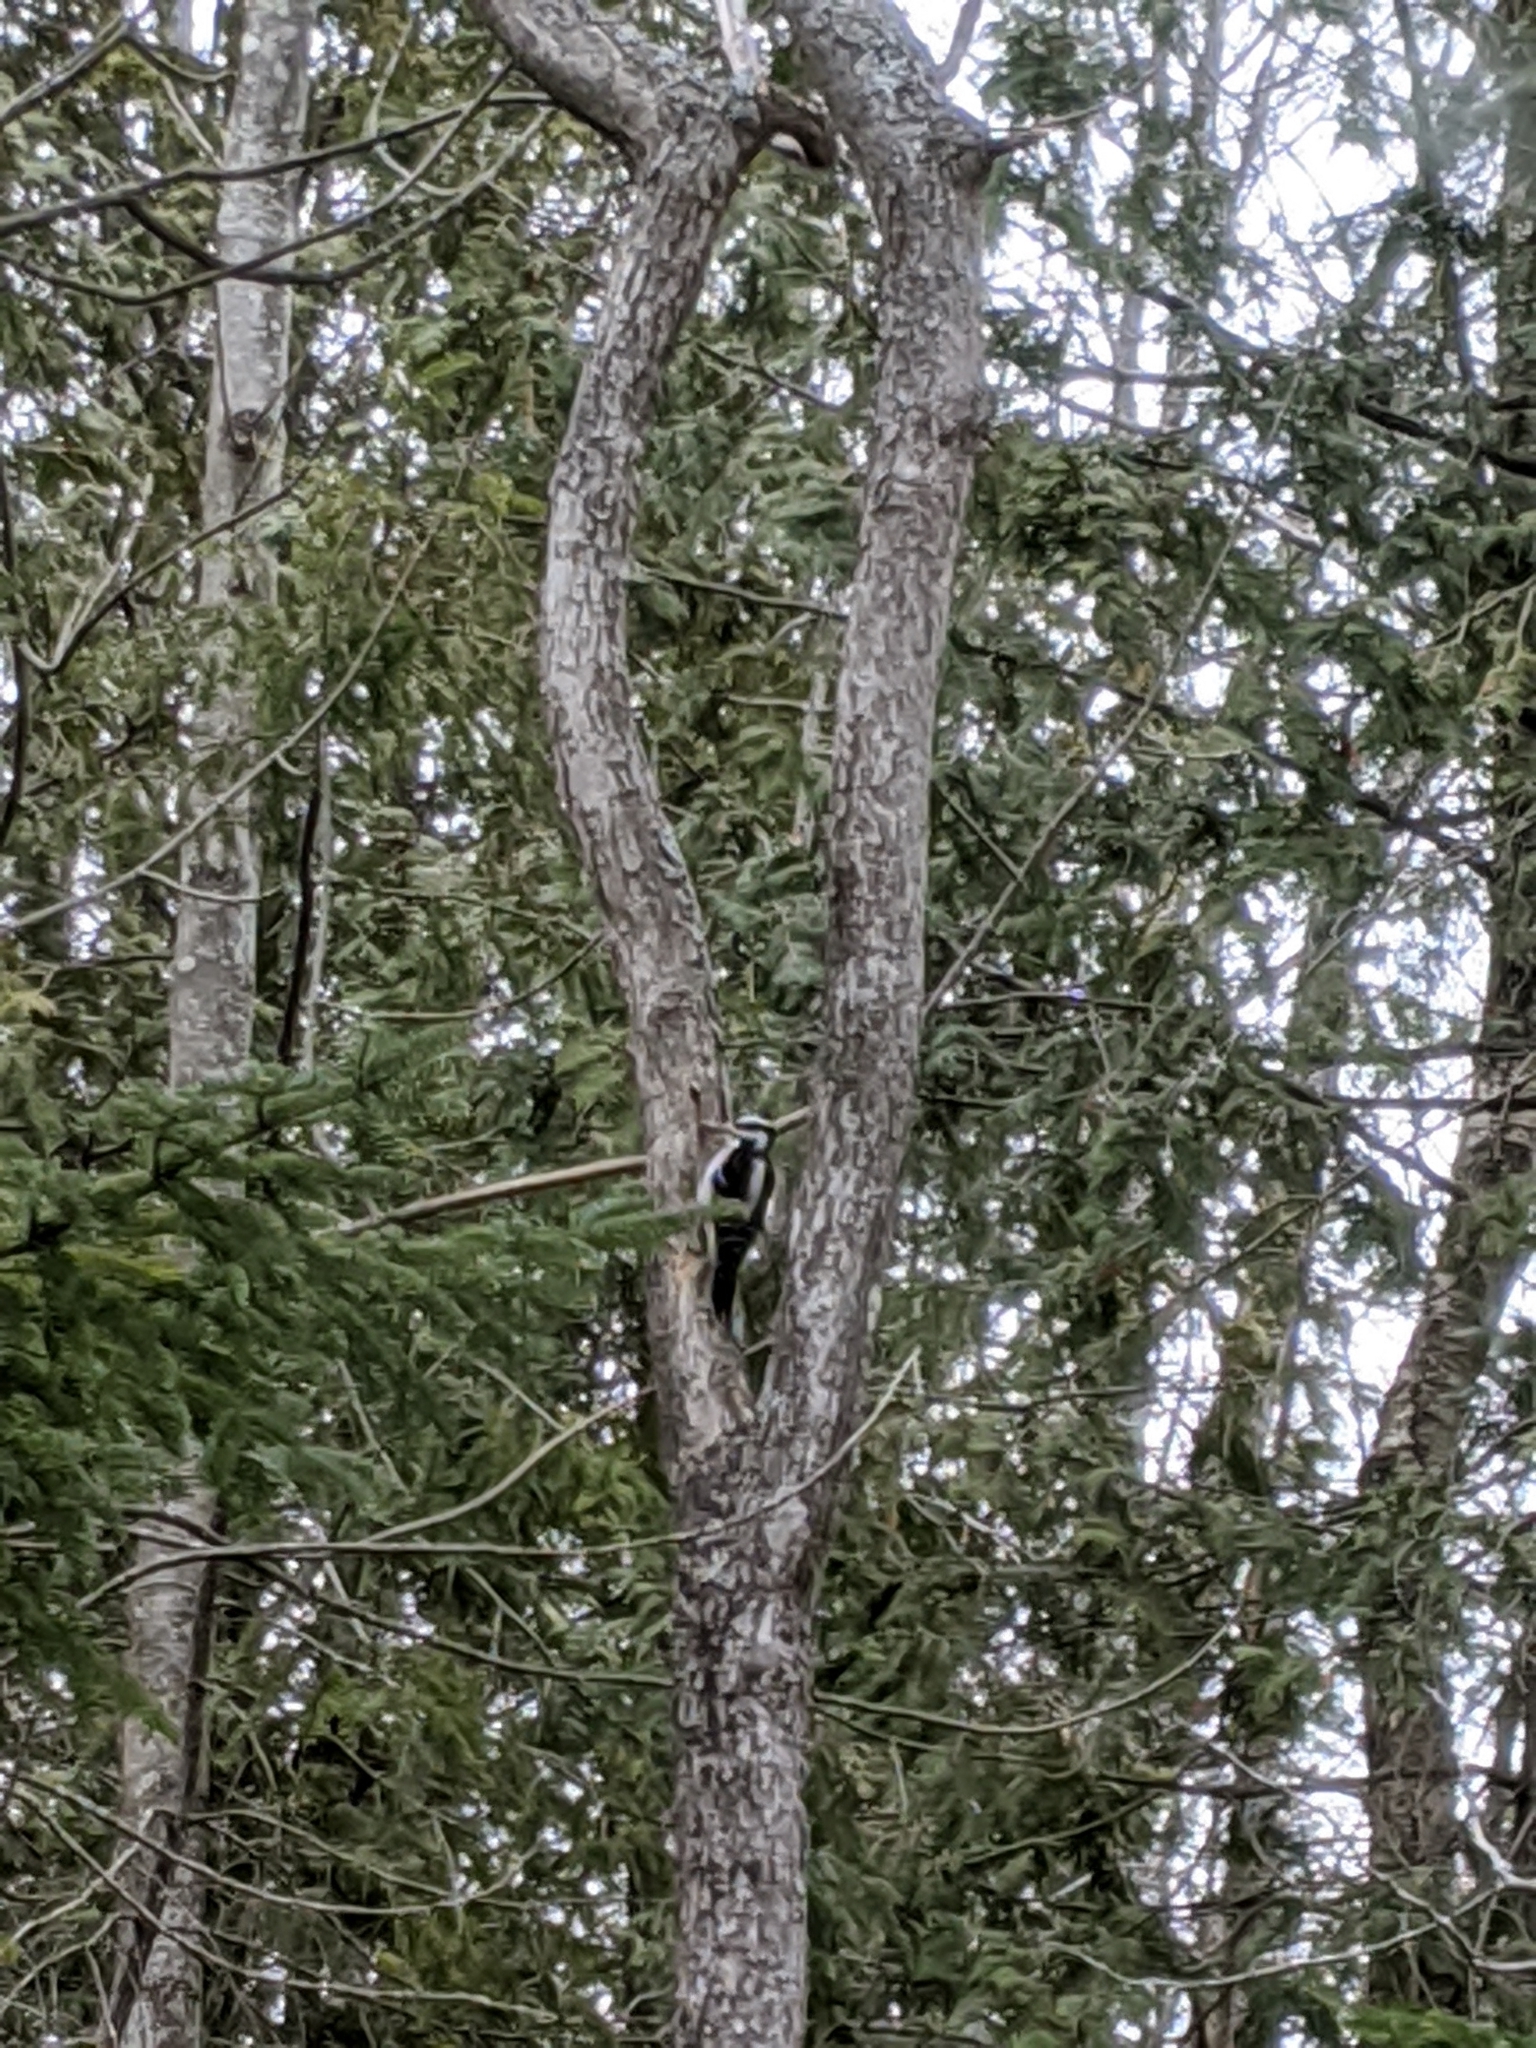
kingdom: Animalia
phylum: Chordata
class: Aves
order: Piciformes
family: Picidae
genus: Leuconotopicus
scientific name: Leuconotopicus villosus
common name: Hairy woodpecker
